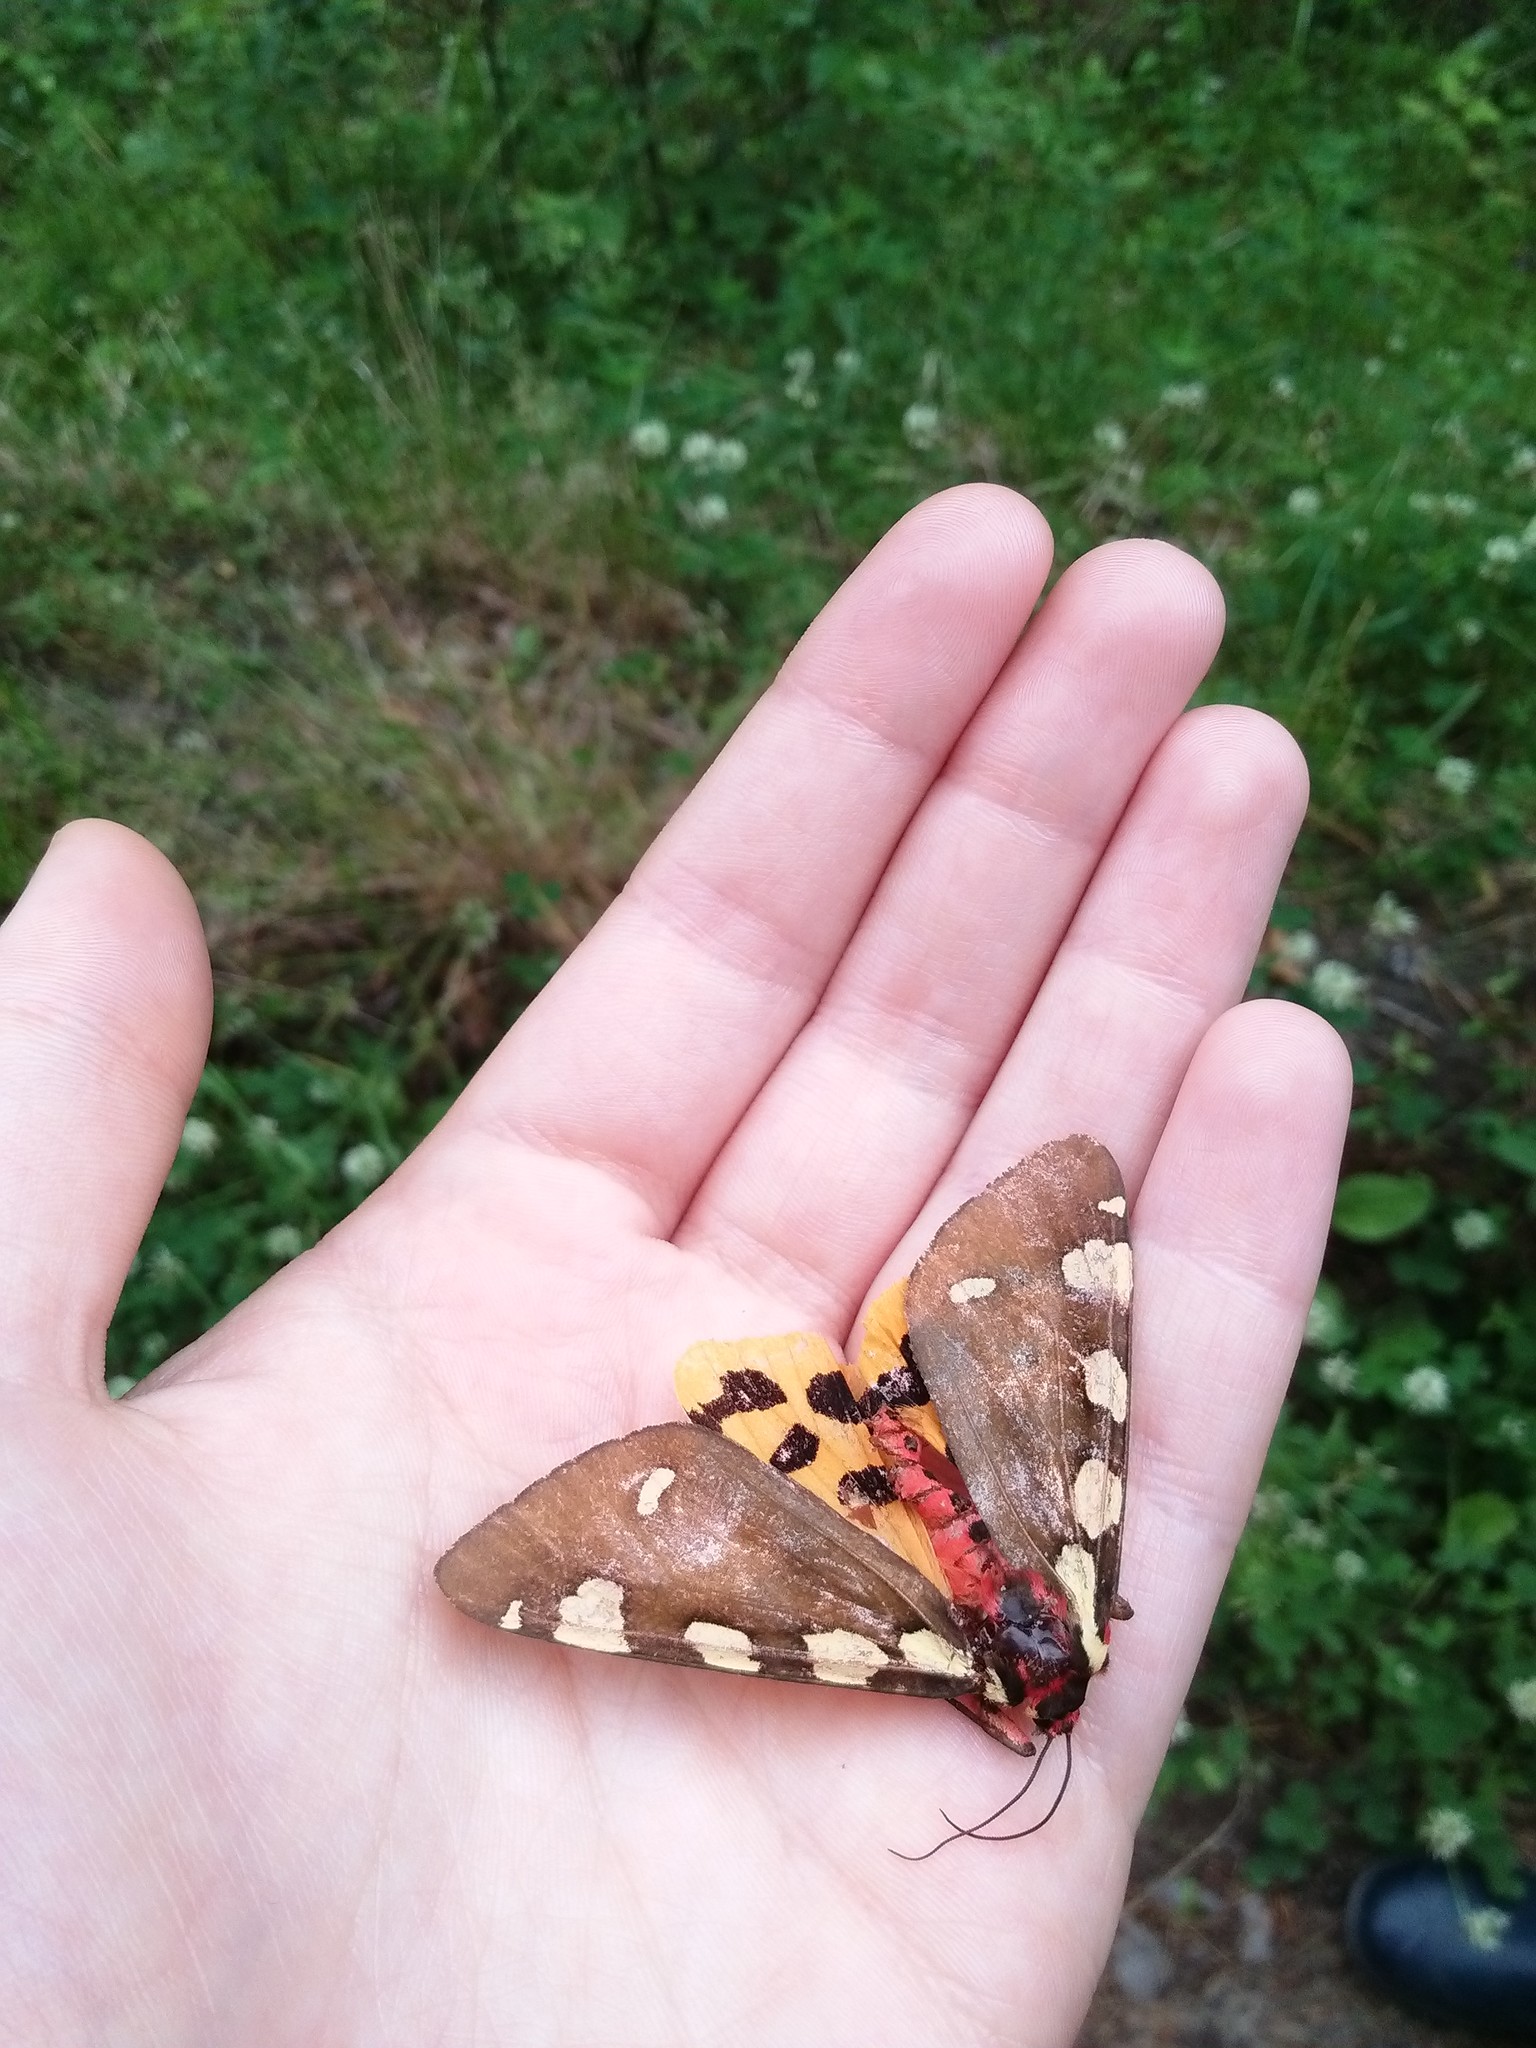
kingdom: Animalia
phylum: Arthropoda
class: Insecta
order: Lepidoptera
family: Erebidae
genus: Pericallia
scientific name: Pericallia matronula
